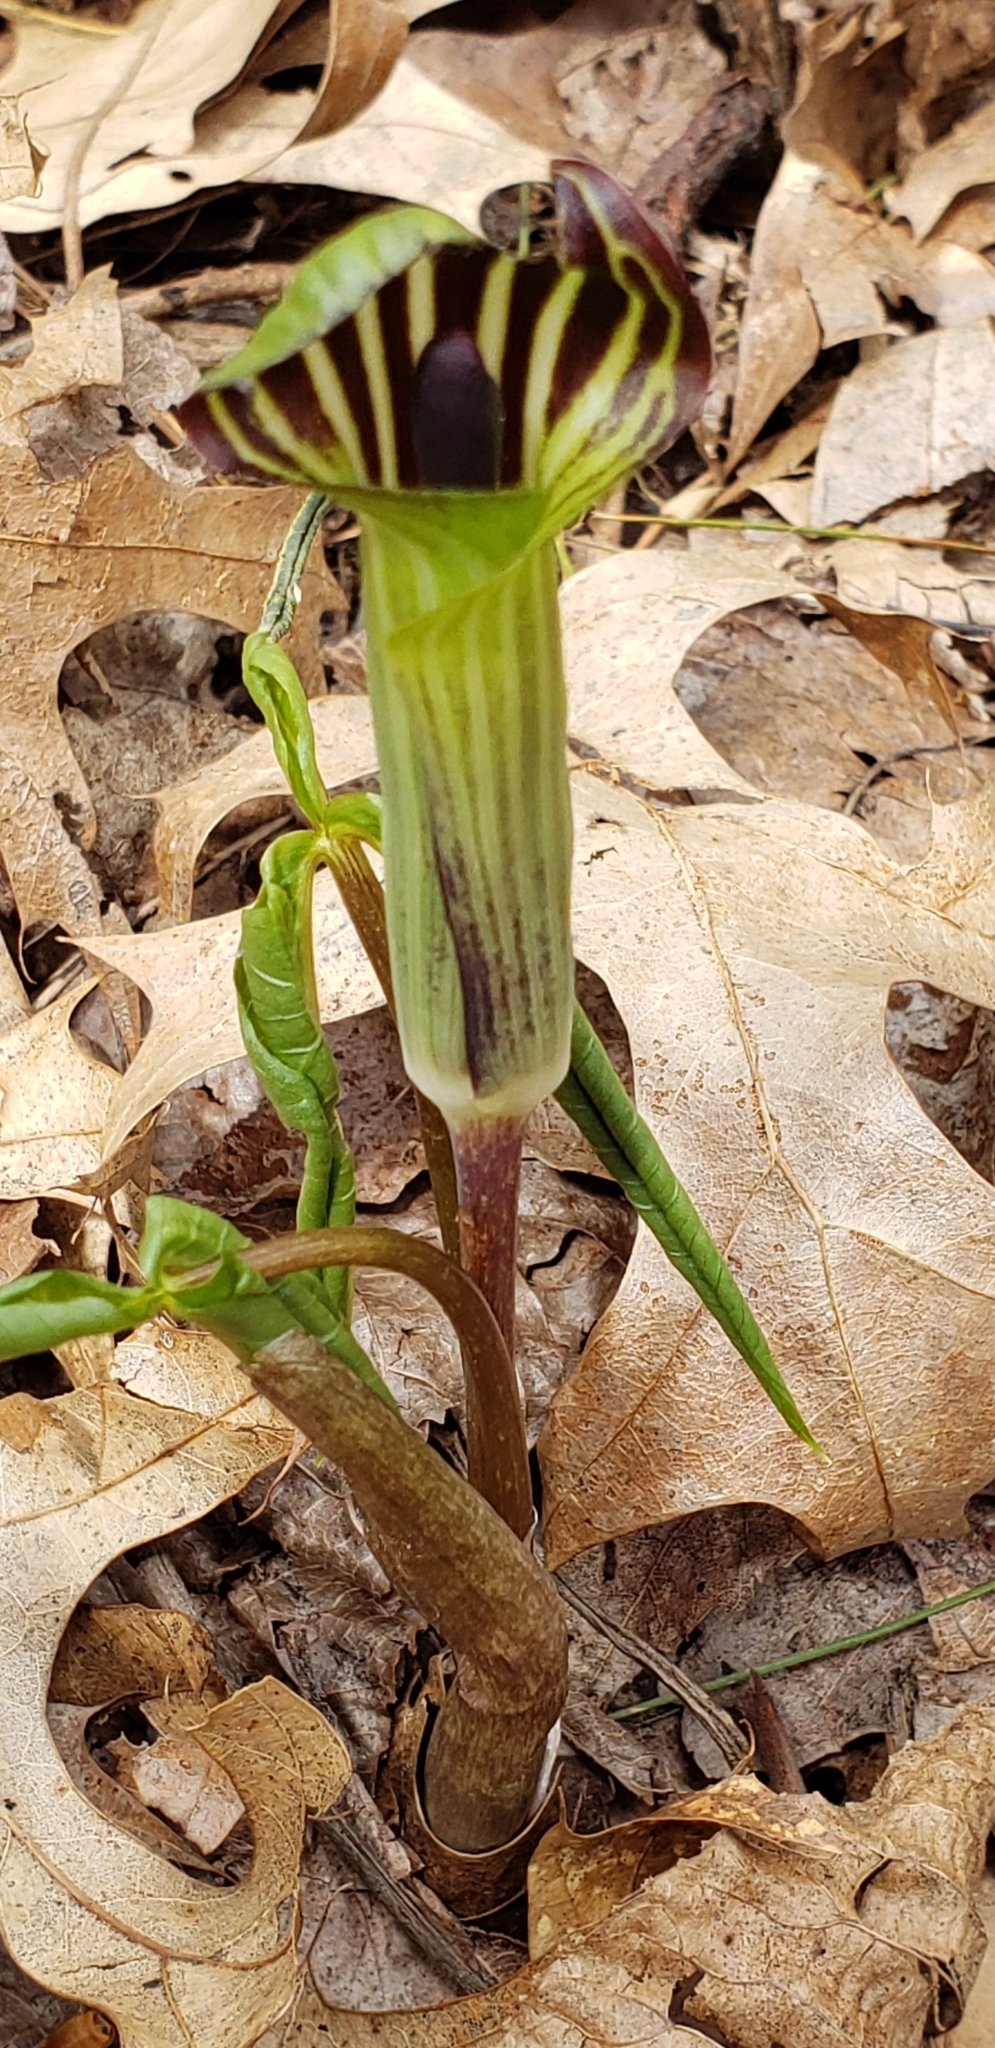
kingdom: Plantae
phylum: Tracheophyta
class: Liliopsida
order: Alismatales
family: Araceae
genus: Arisaema
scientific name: Arisaema triphyllum
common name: Jack-in-the-pulpit
